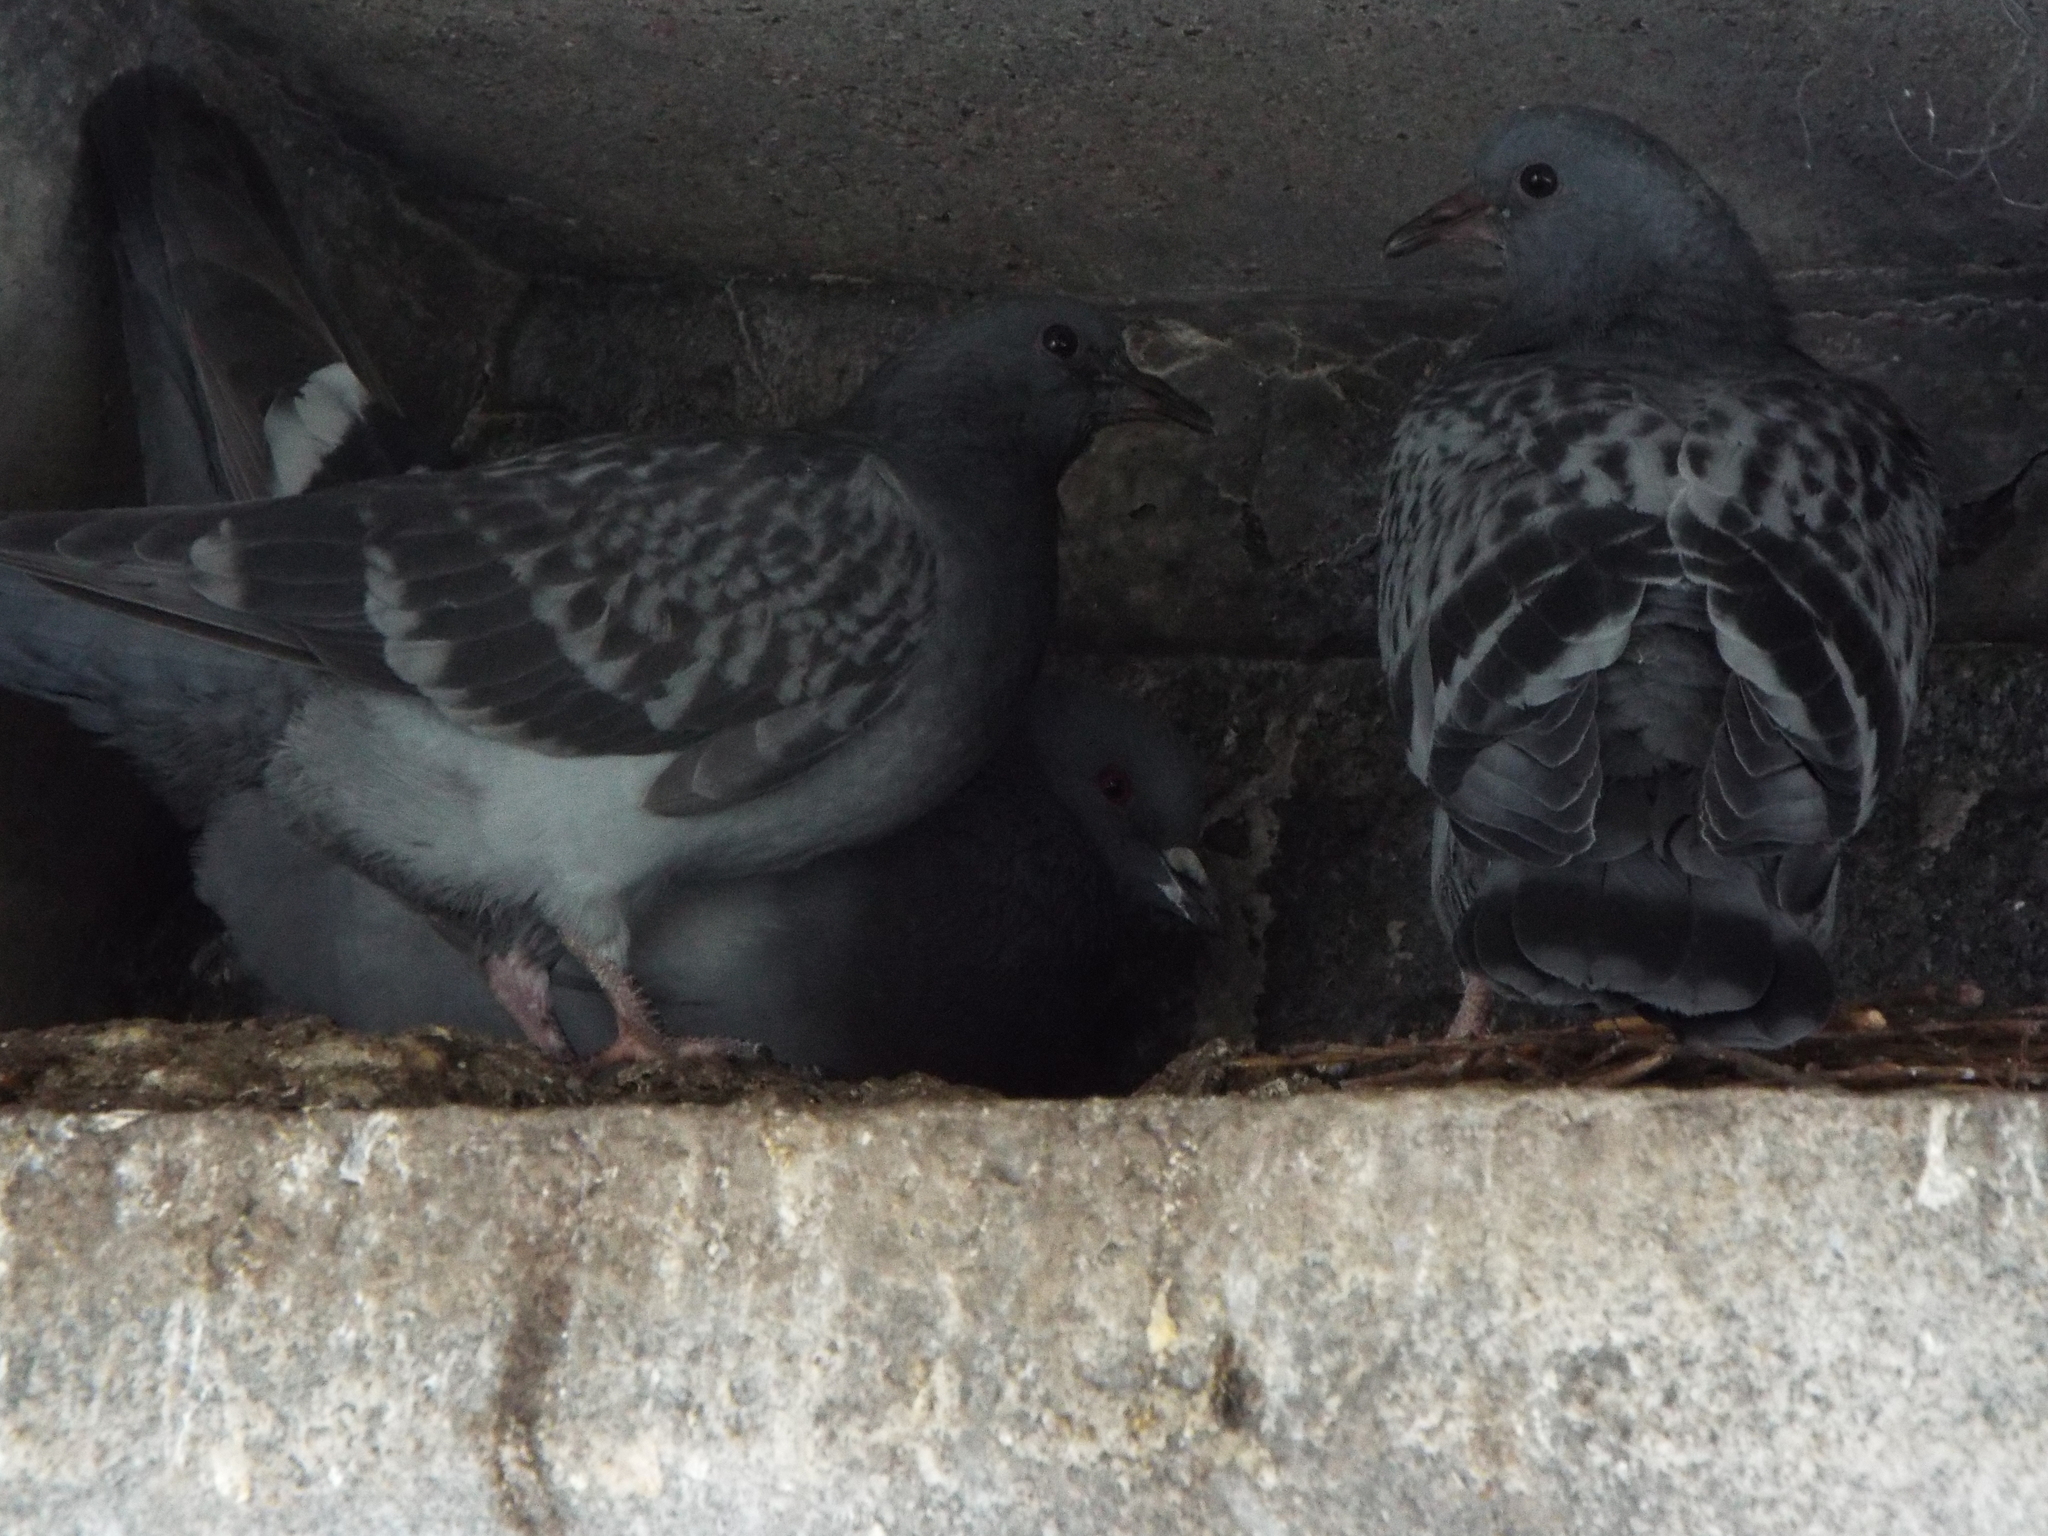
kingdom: Animalia
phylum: Chordata
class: Aves
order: Columbiformes
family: Columbidae
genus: Columba
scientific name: Columba livia
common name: Rock pigeon
